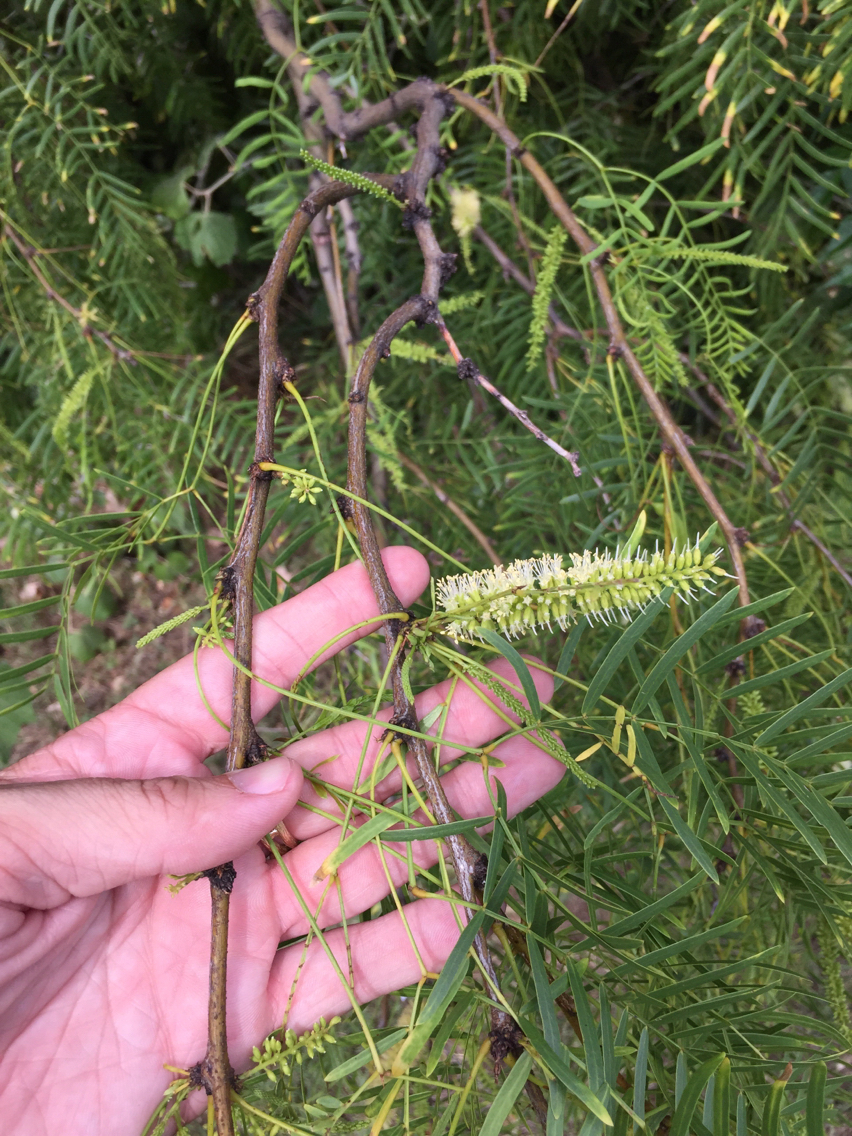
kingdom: Plantae
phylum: Tracheophyta
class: Magnoliopsida
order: Fabales
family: Fabaceae
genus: Prosopis
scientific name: Prosopis glandulosa
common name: Honey mesquite
